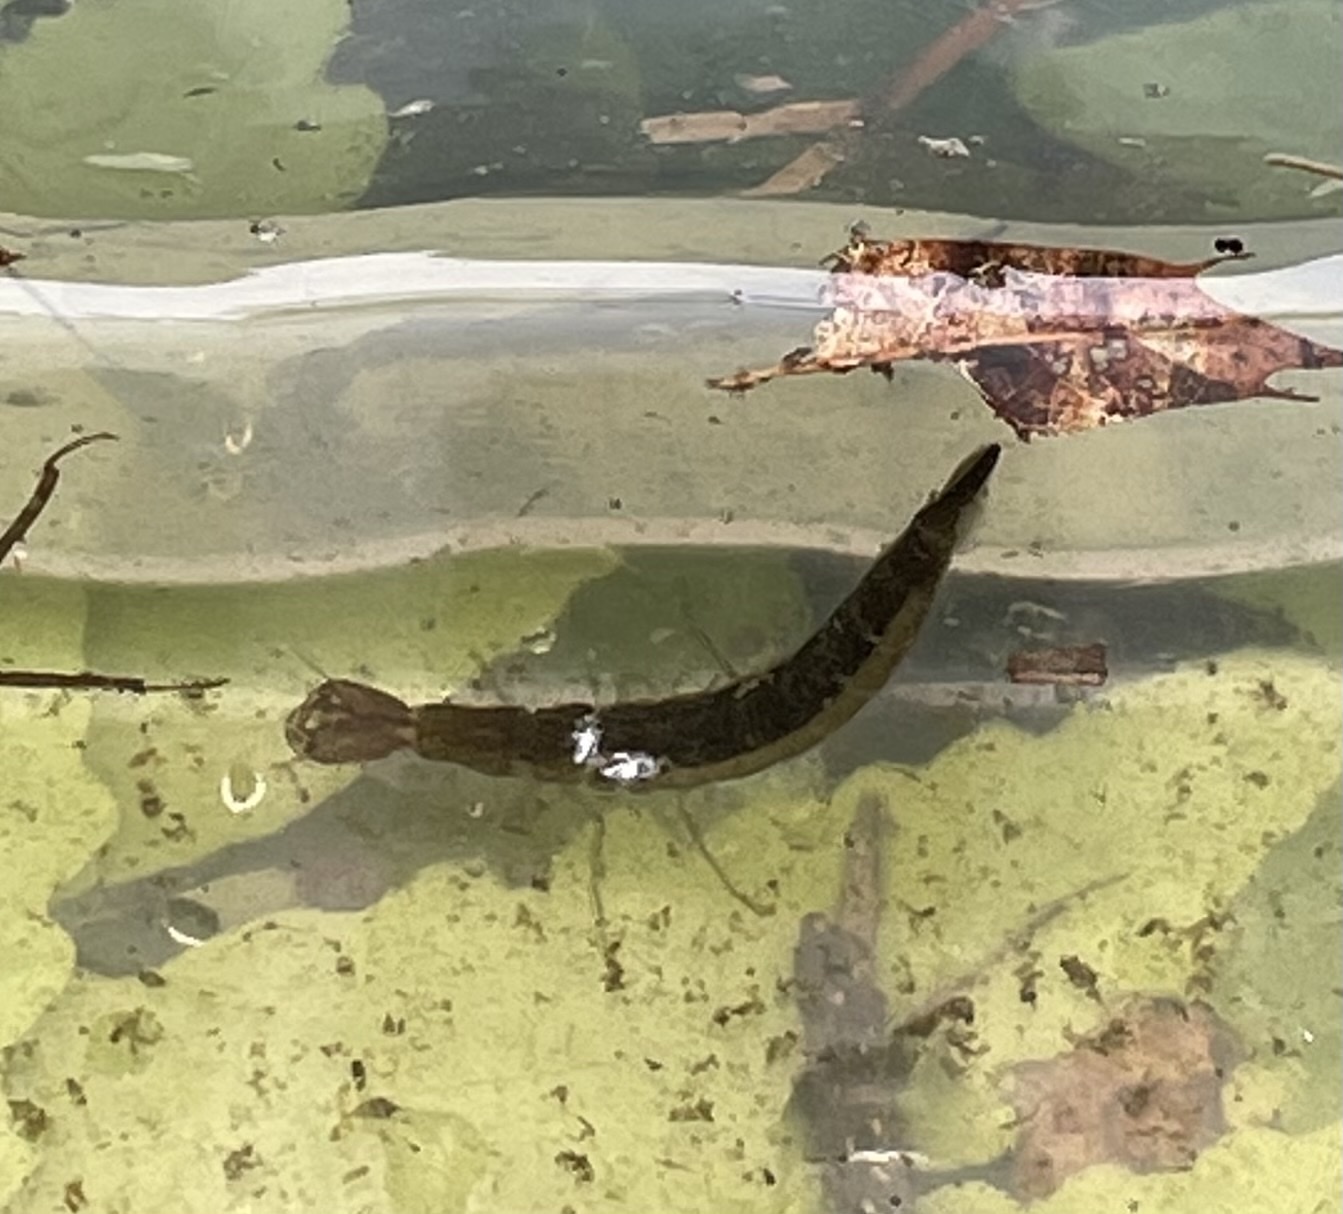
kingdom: Animalia
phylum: Arthropoda
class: Insecta
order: Coleoptera
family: Dytiscidae
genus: Cybister
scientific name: Cybister fimbriolatus
